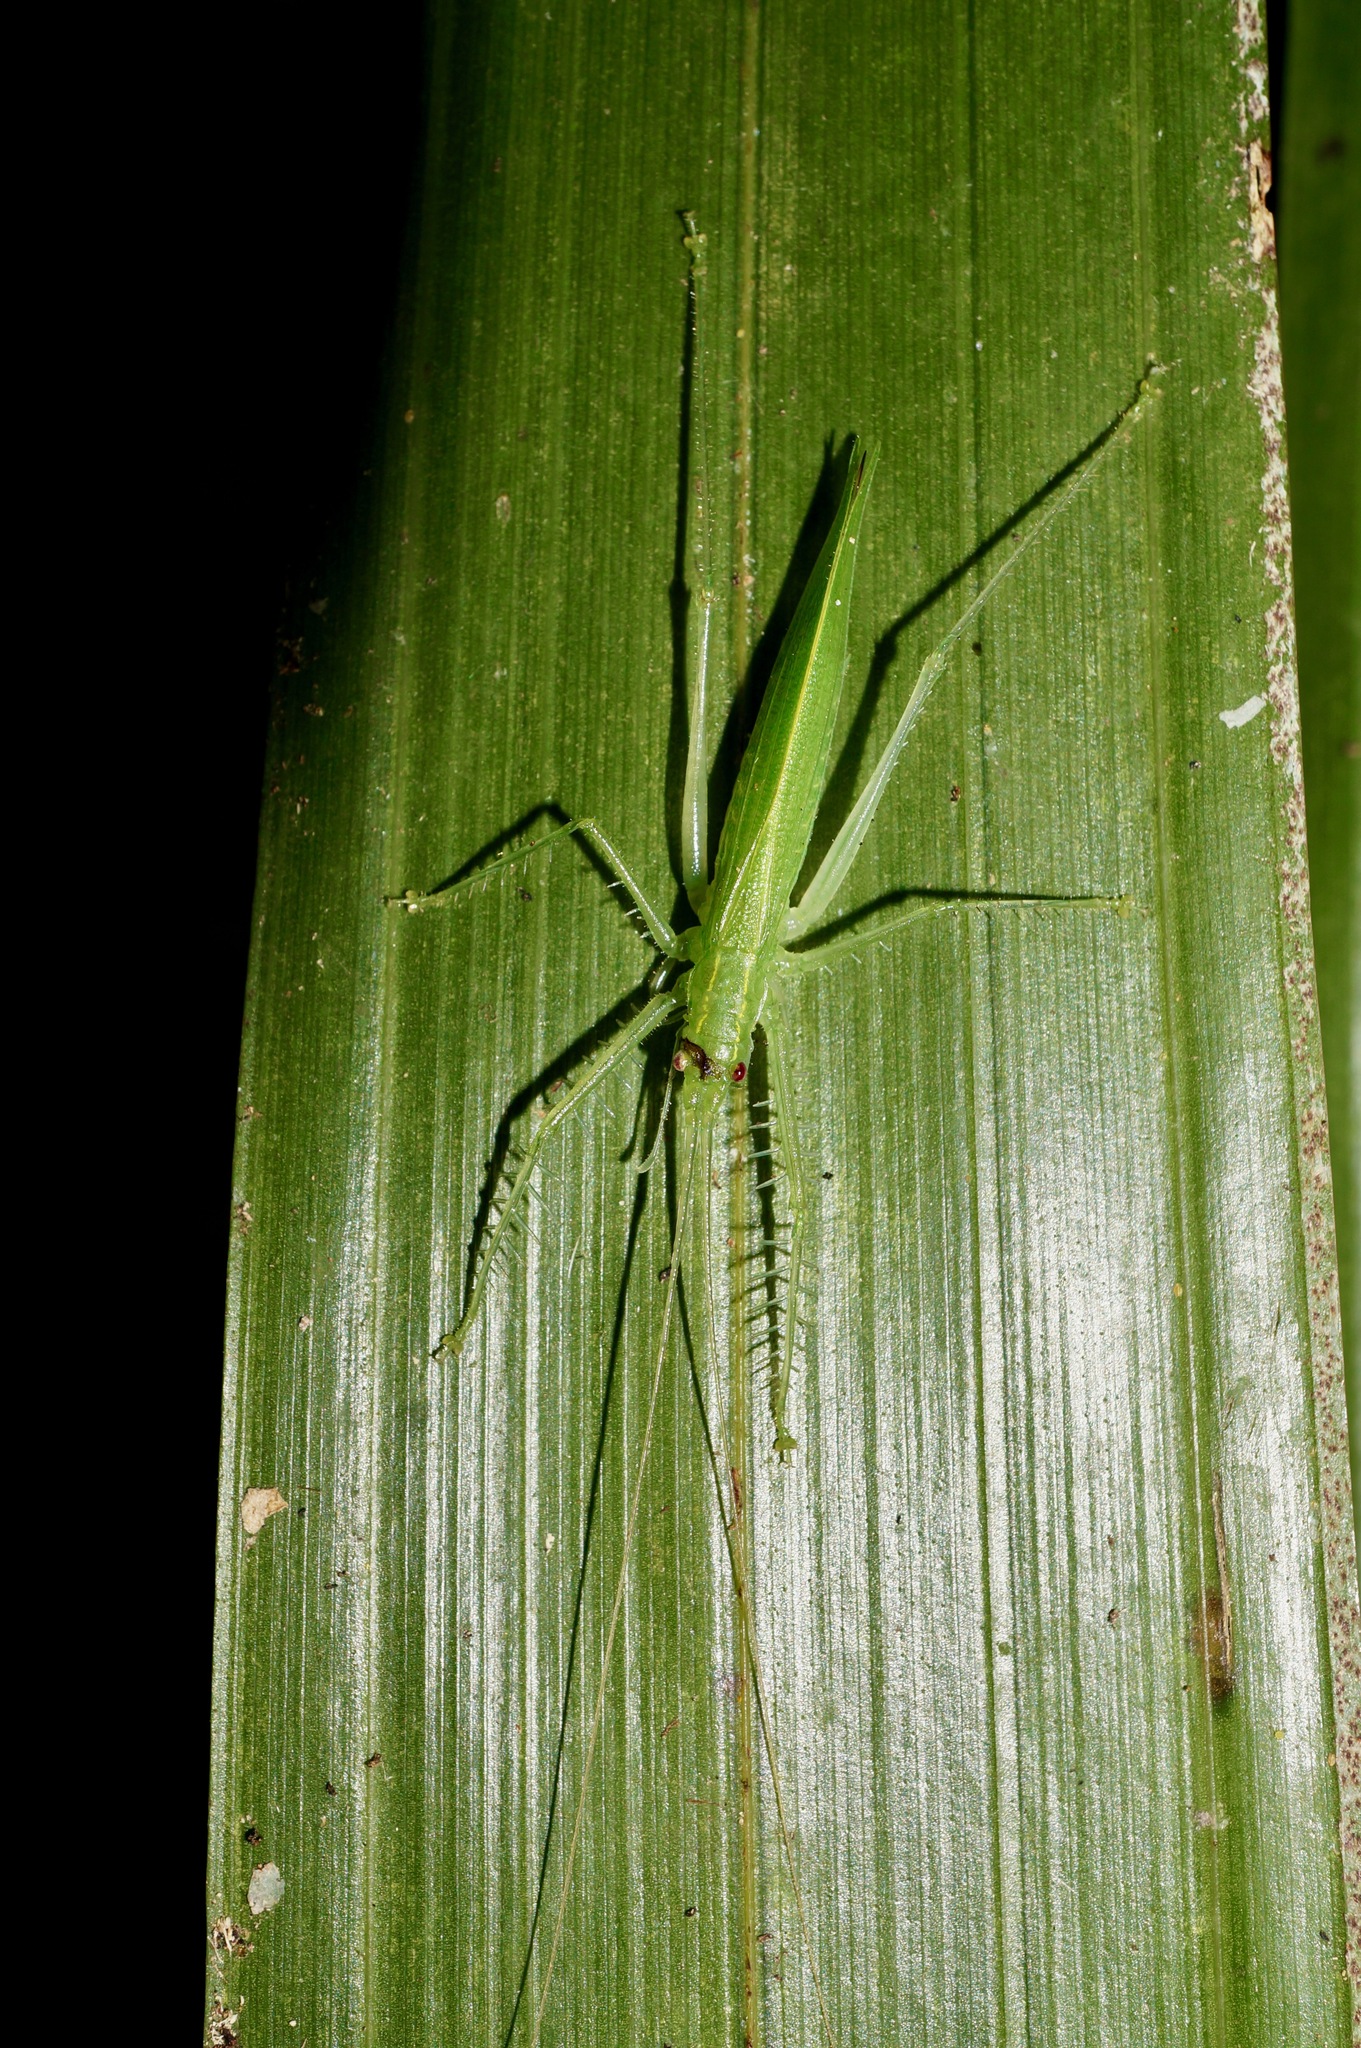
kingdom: Animalia
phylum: Arthropoda
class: Insecta
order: Orthoptera
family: Tettigoniidae
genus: Beiericolya
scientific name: Beiericolya tardipes
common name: Norfolk island beierdid
